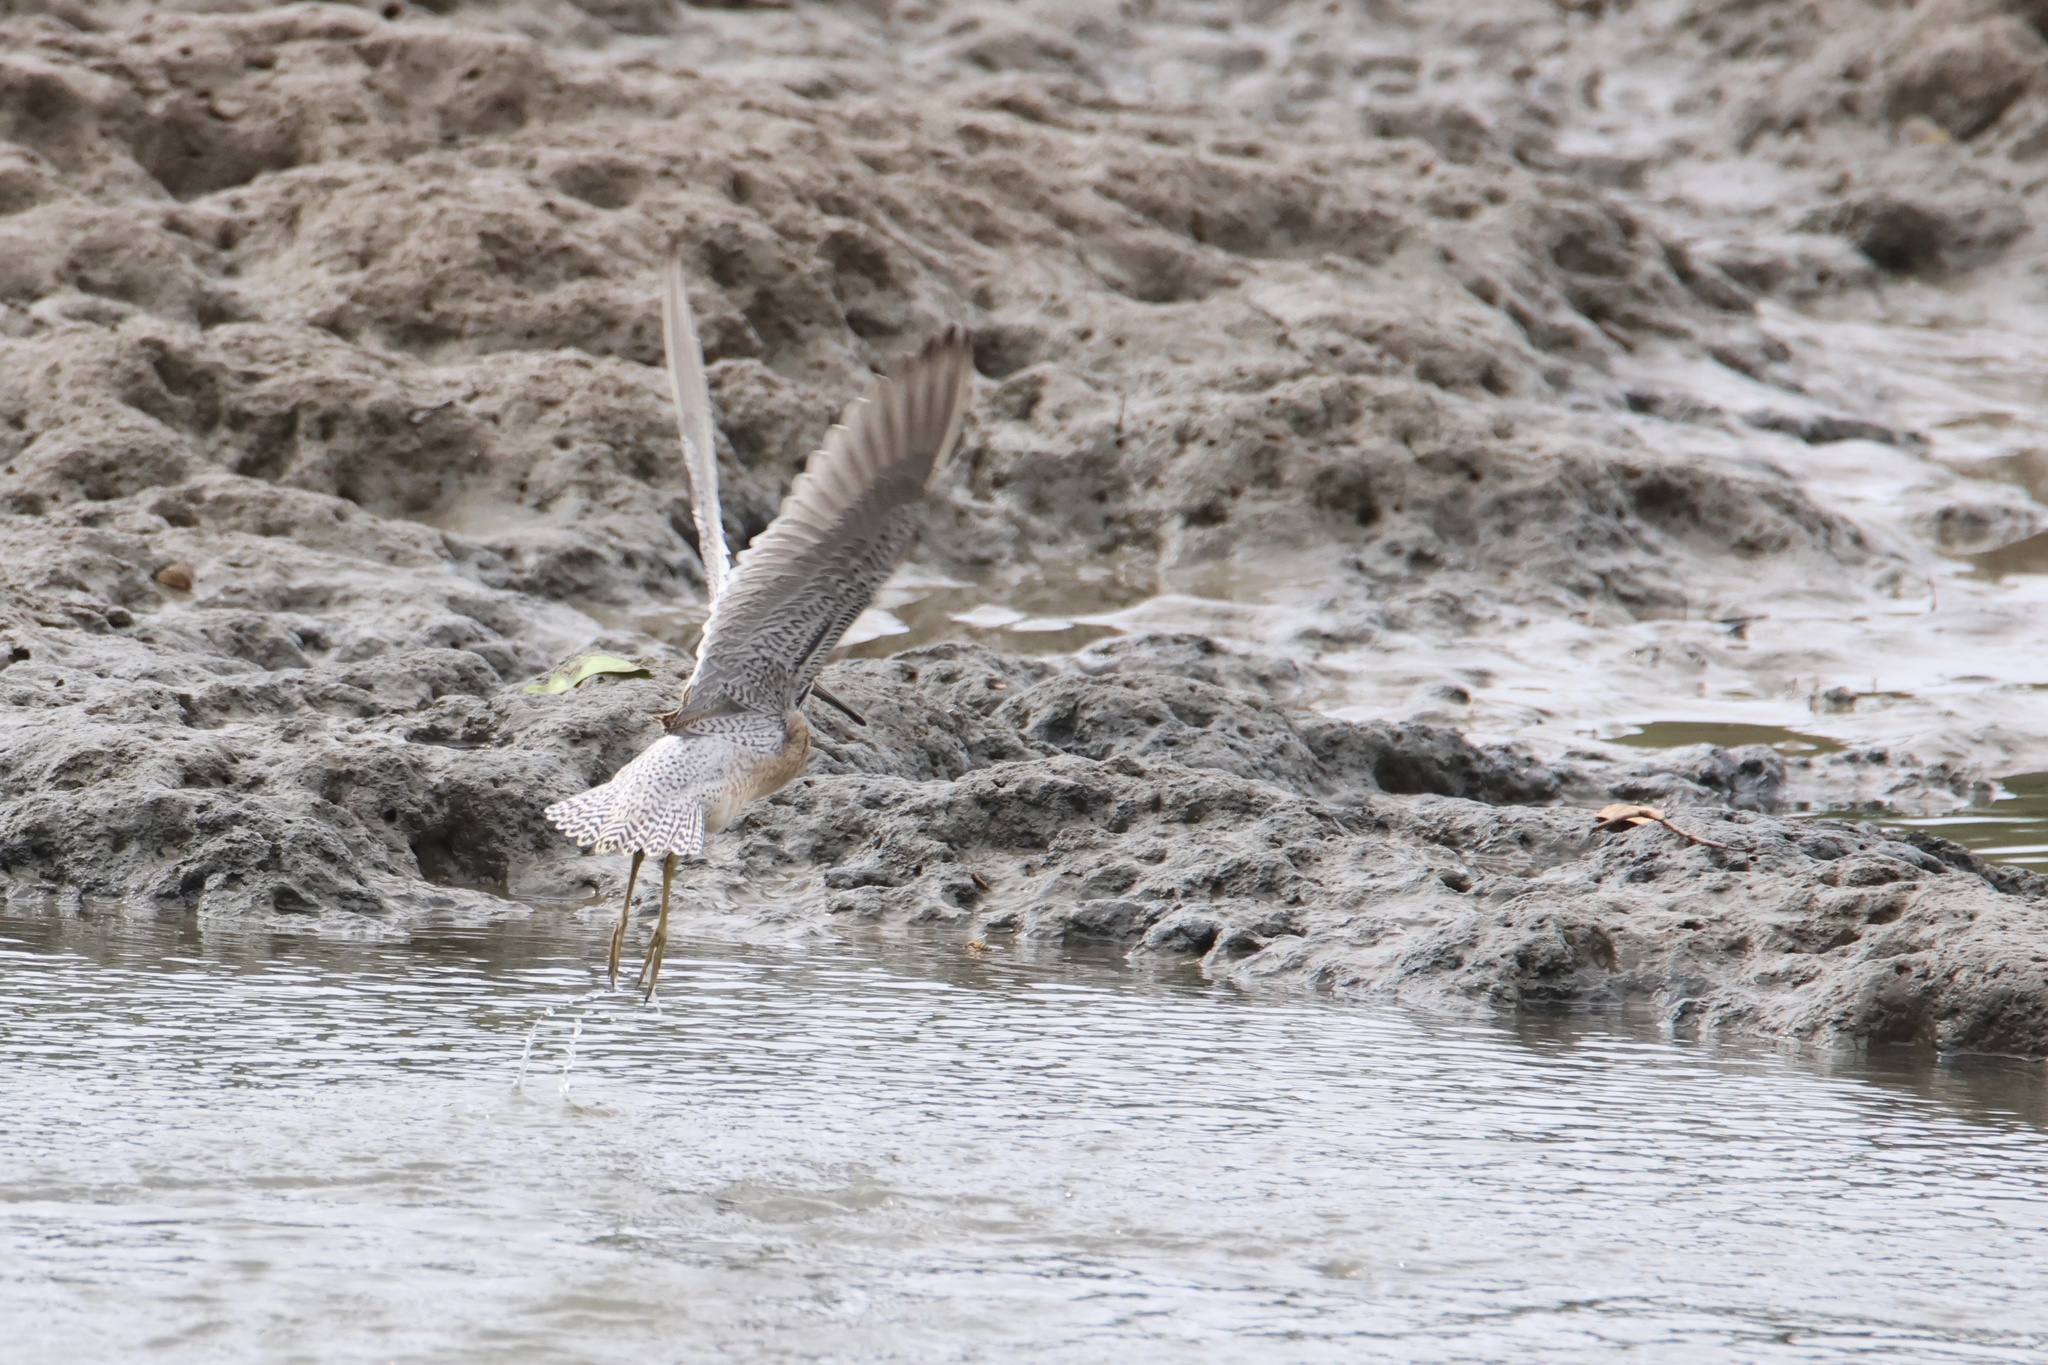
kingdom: Animalia
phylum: Chordata
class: Aves
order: Charadriiformes
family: Scolopacidae
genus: Limnodromus
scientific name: Limnodromus griseus
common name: Short-billed dowitcher
